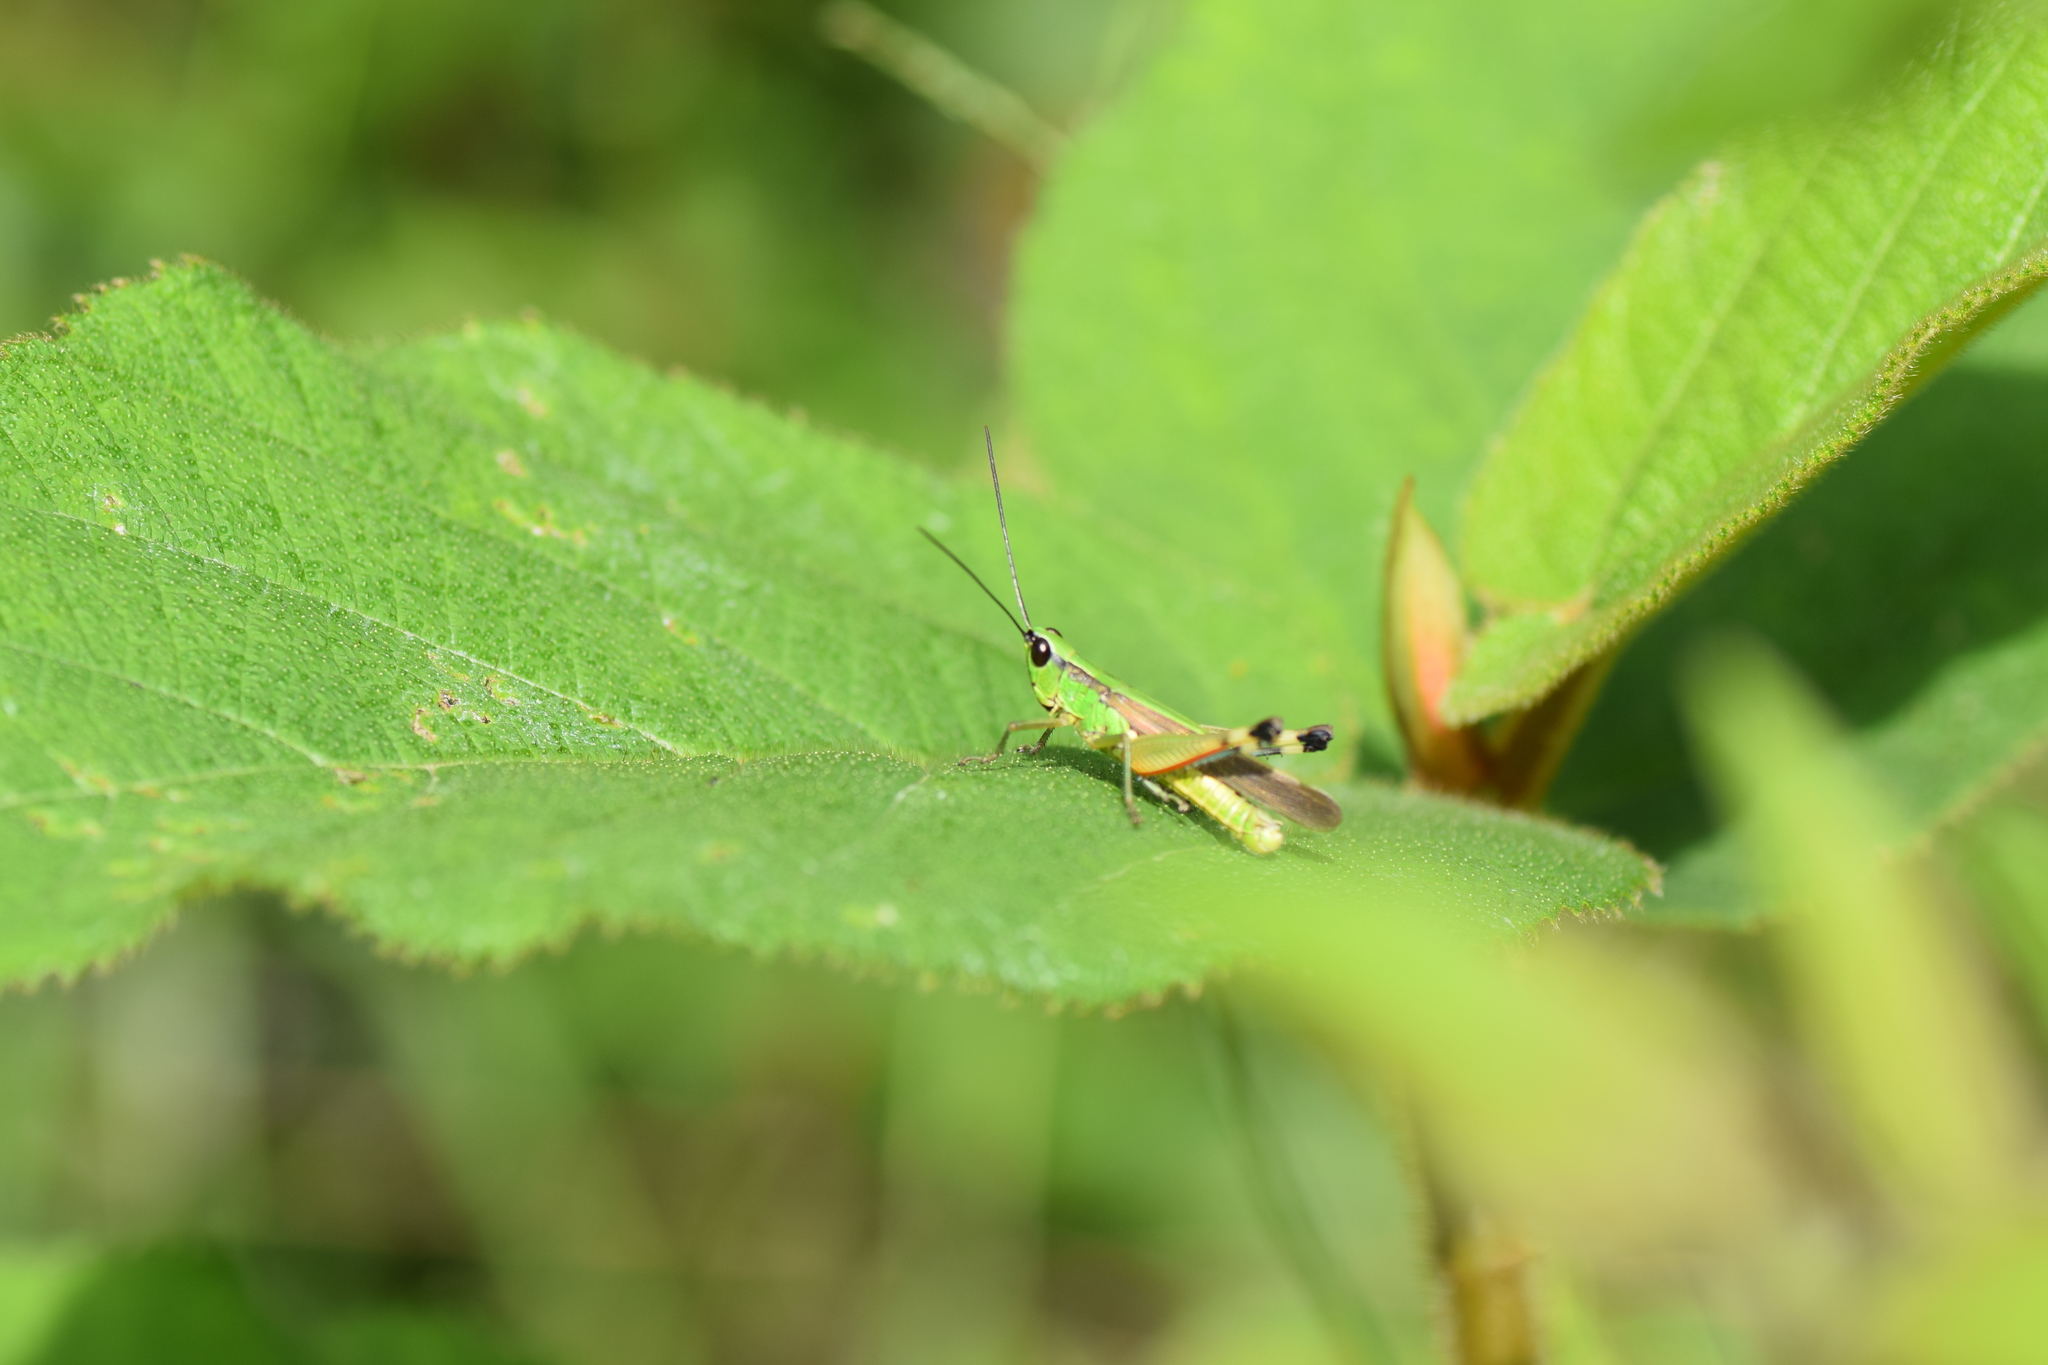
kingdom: Animalia
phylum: Arthropoda
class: Insecta
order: Orthoptera
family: Acrididae
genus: Ceracris
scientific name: Ceracris nigricornis
